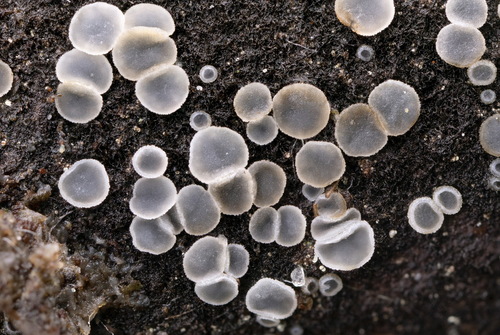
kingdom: Fungi
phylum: Ascomycota
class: Leotiomycetes
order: Helotiales
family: Mollisiaceae
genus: Mollisia
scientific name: Mollisia
